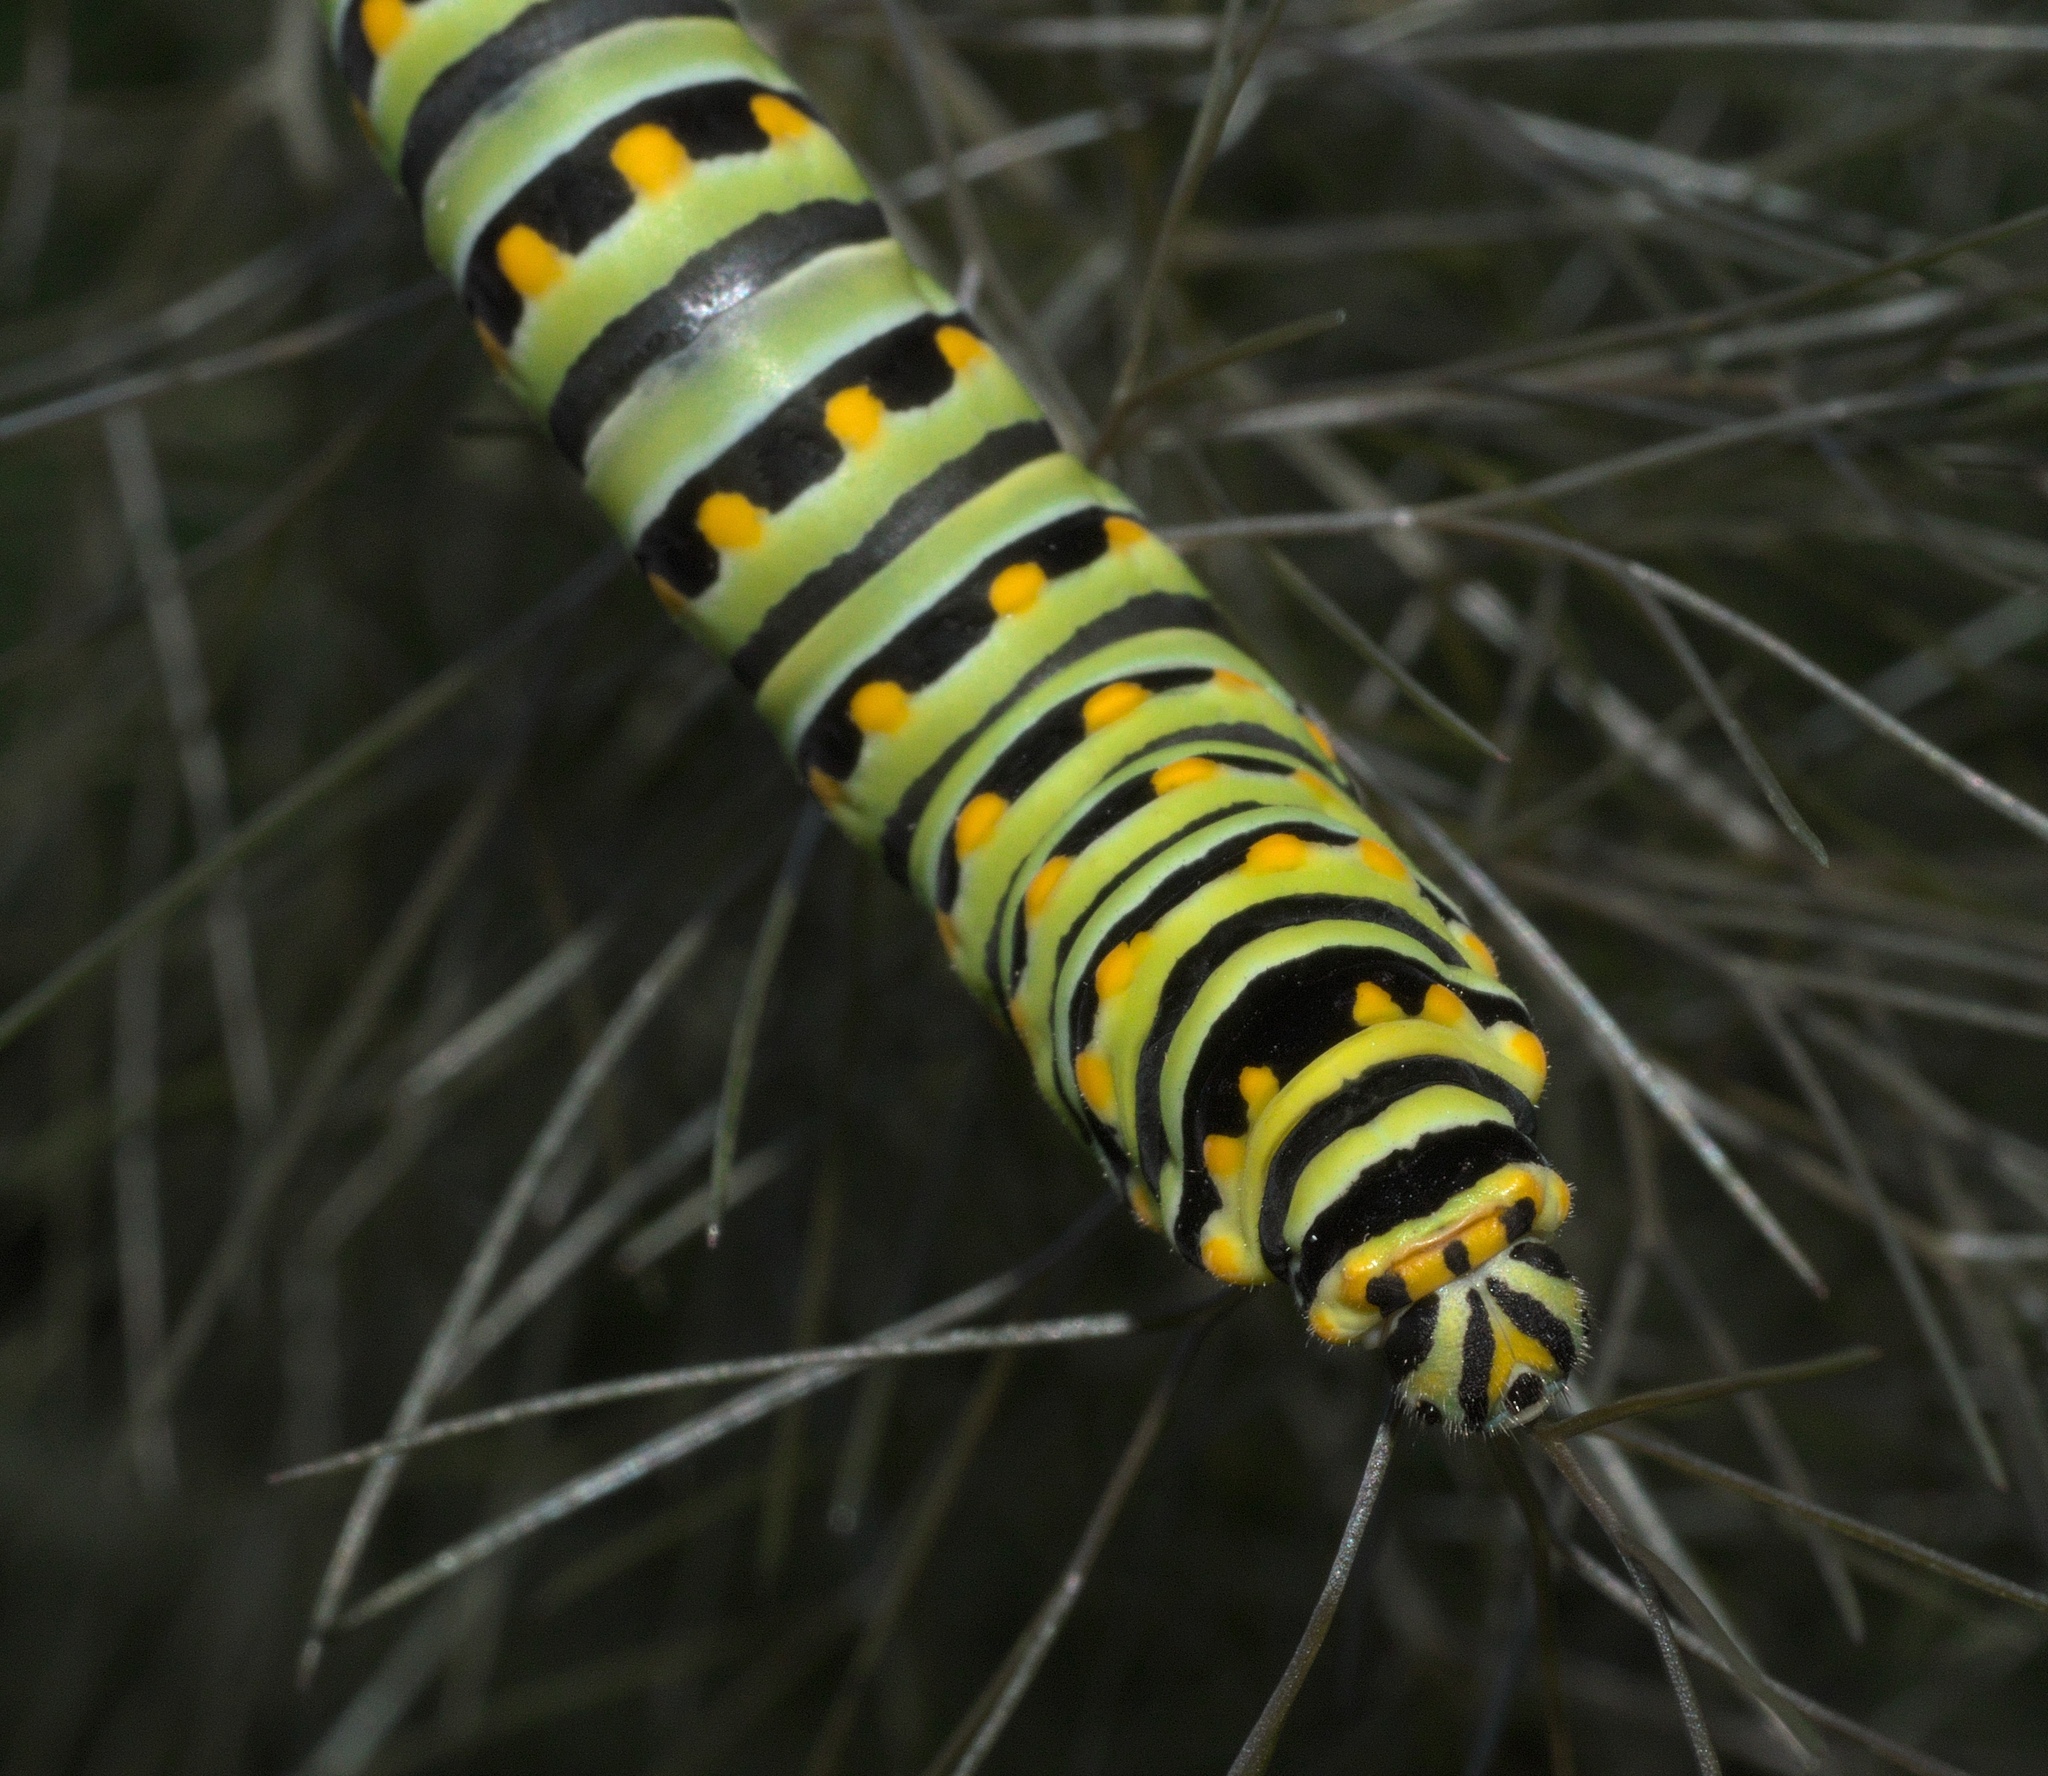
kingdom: Animalia
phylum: Arthropoda
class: Insecta
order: Lepidoptera
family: Papilionidae
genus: Papilio
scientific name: Papilio polyxenes
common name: Black swallowtail
